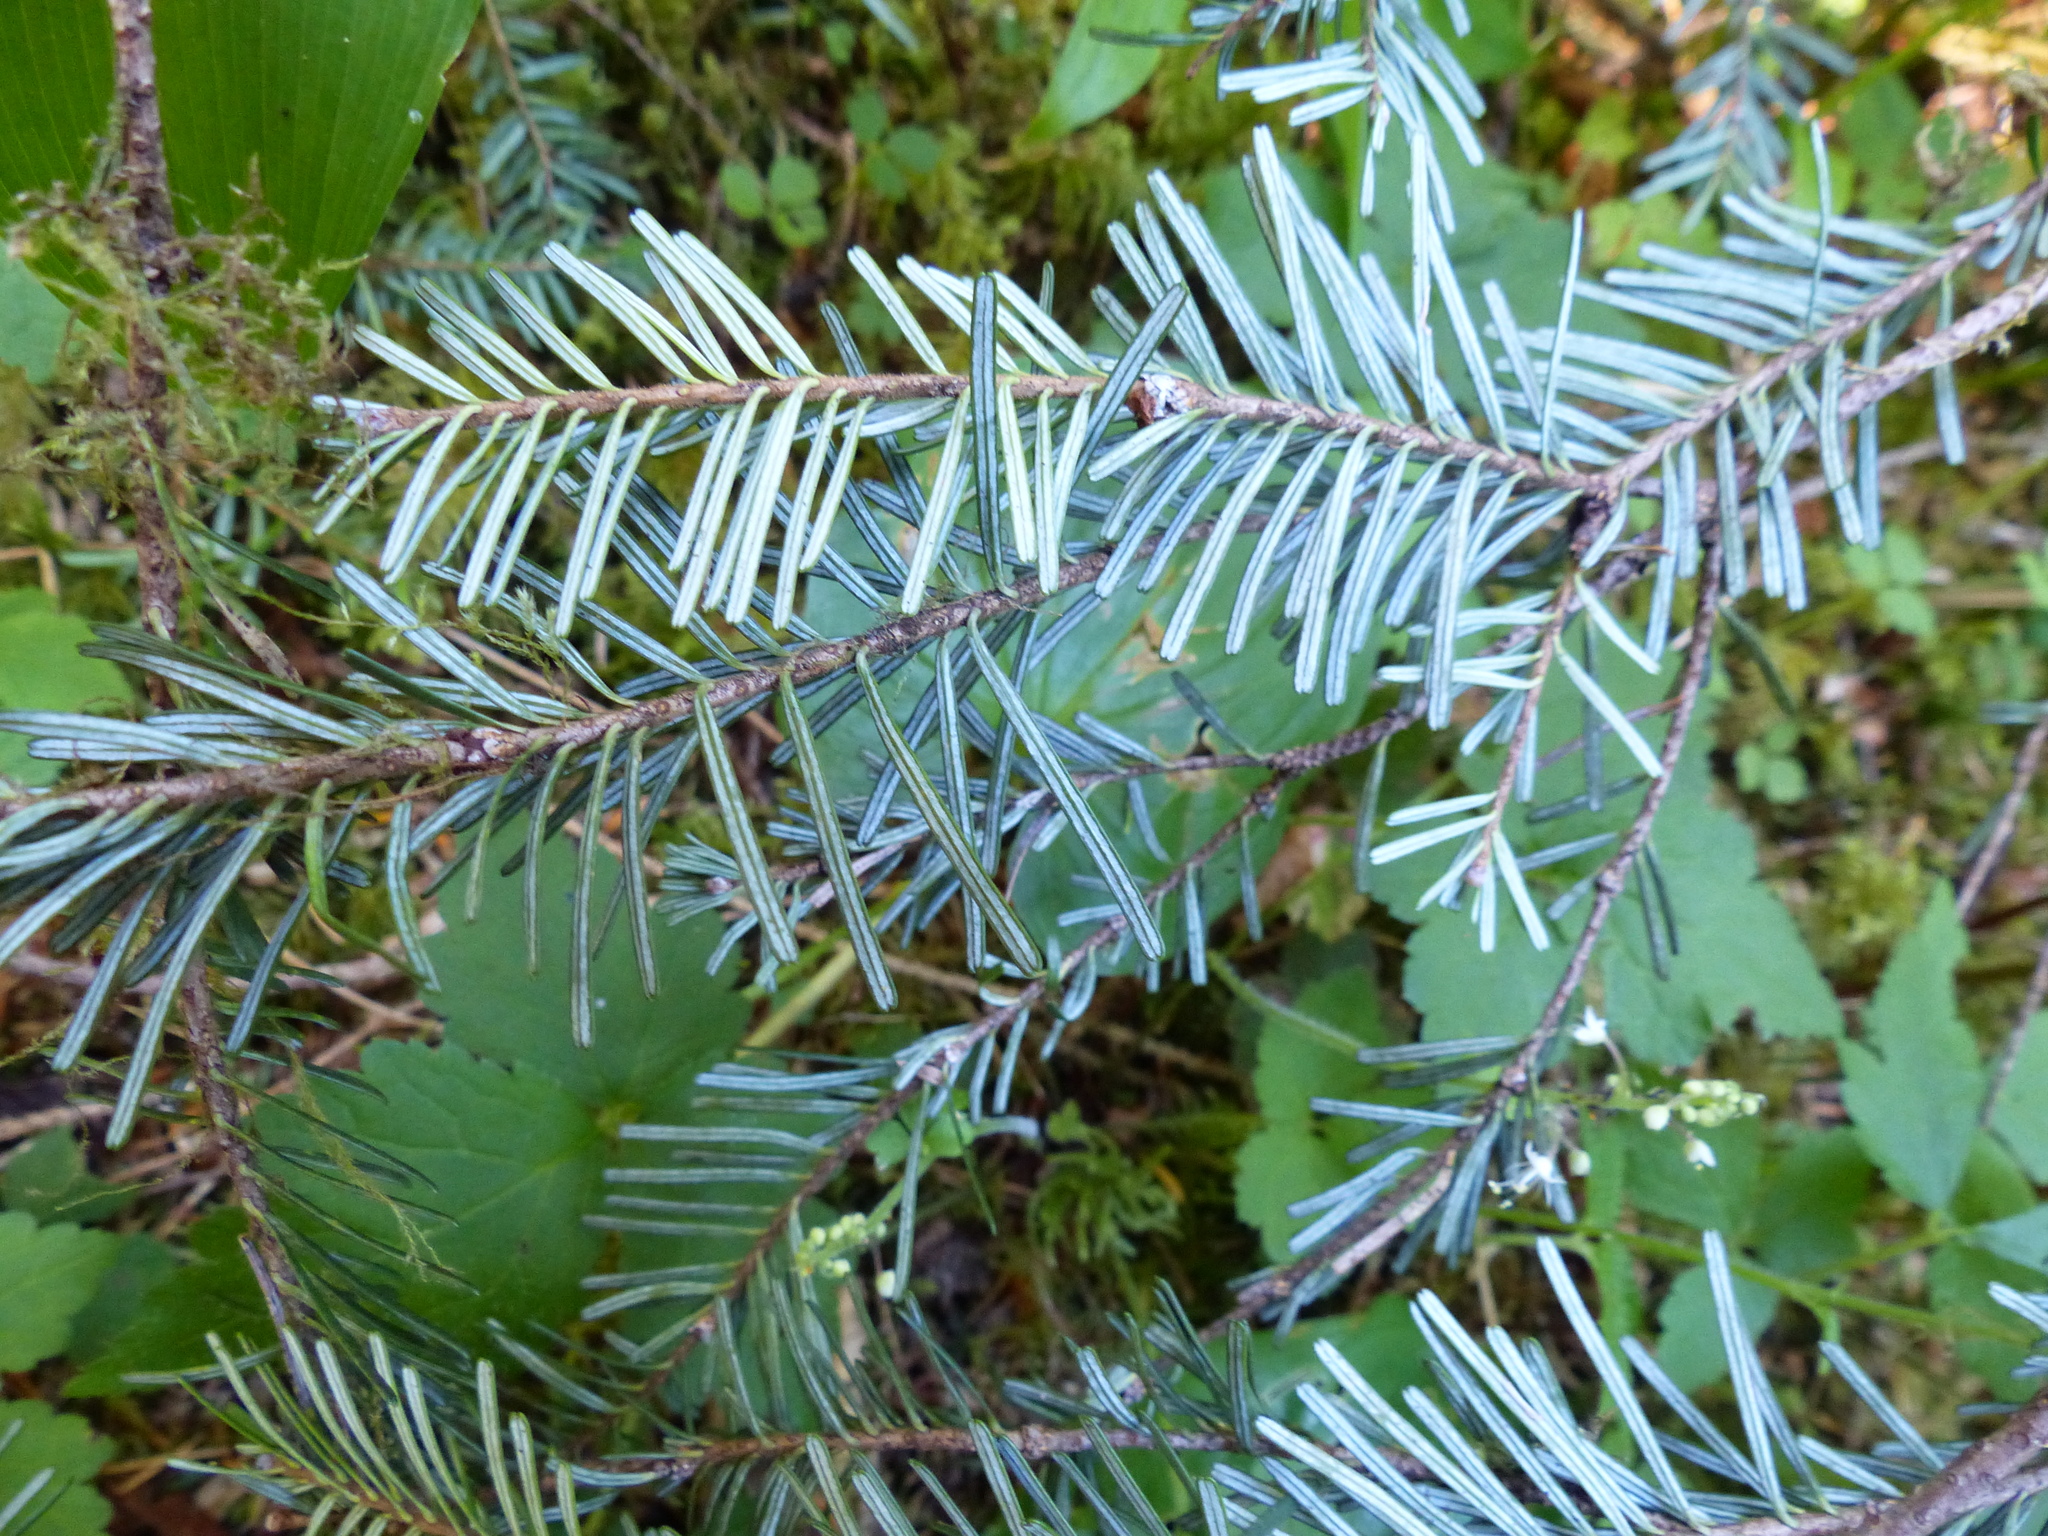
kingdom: Plantae
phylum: Tracheophyta
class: Pinopsida
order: Pinales
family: Pinaceae
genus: Abies
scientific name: Abies amabilis
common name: Pacific silver fir
